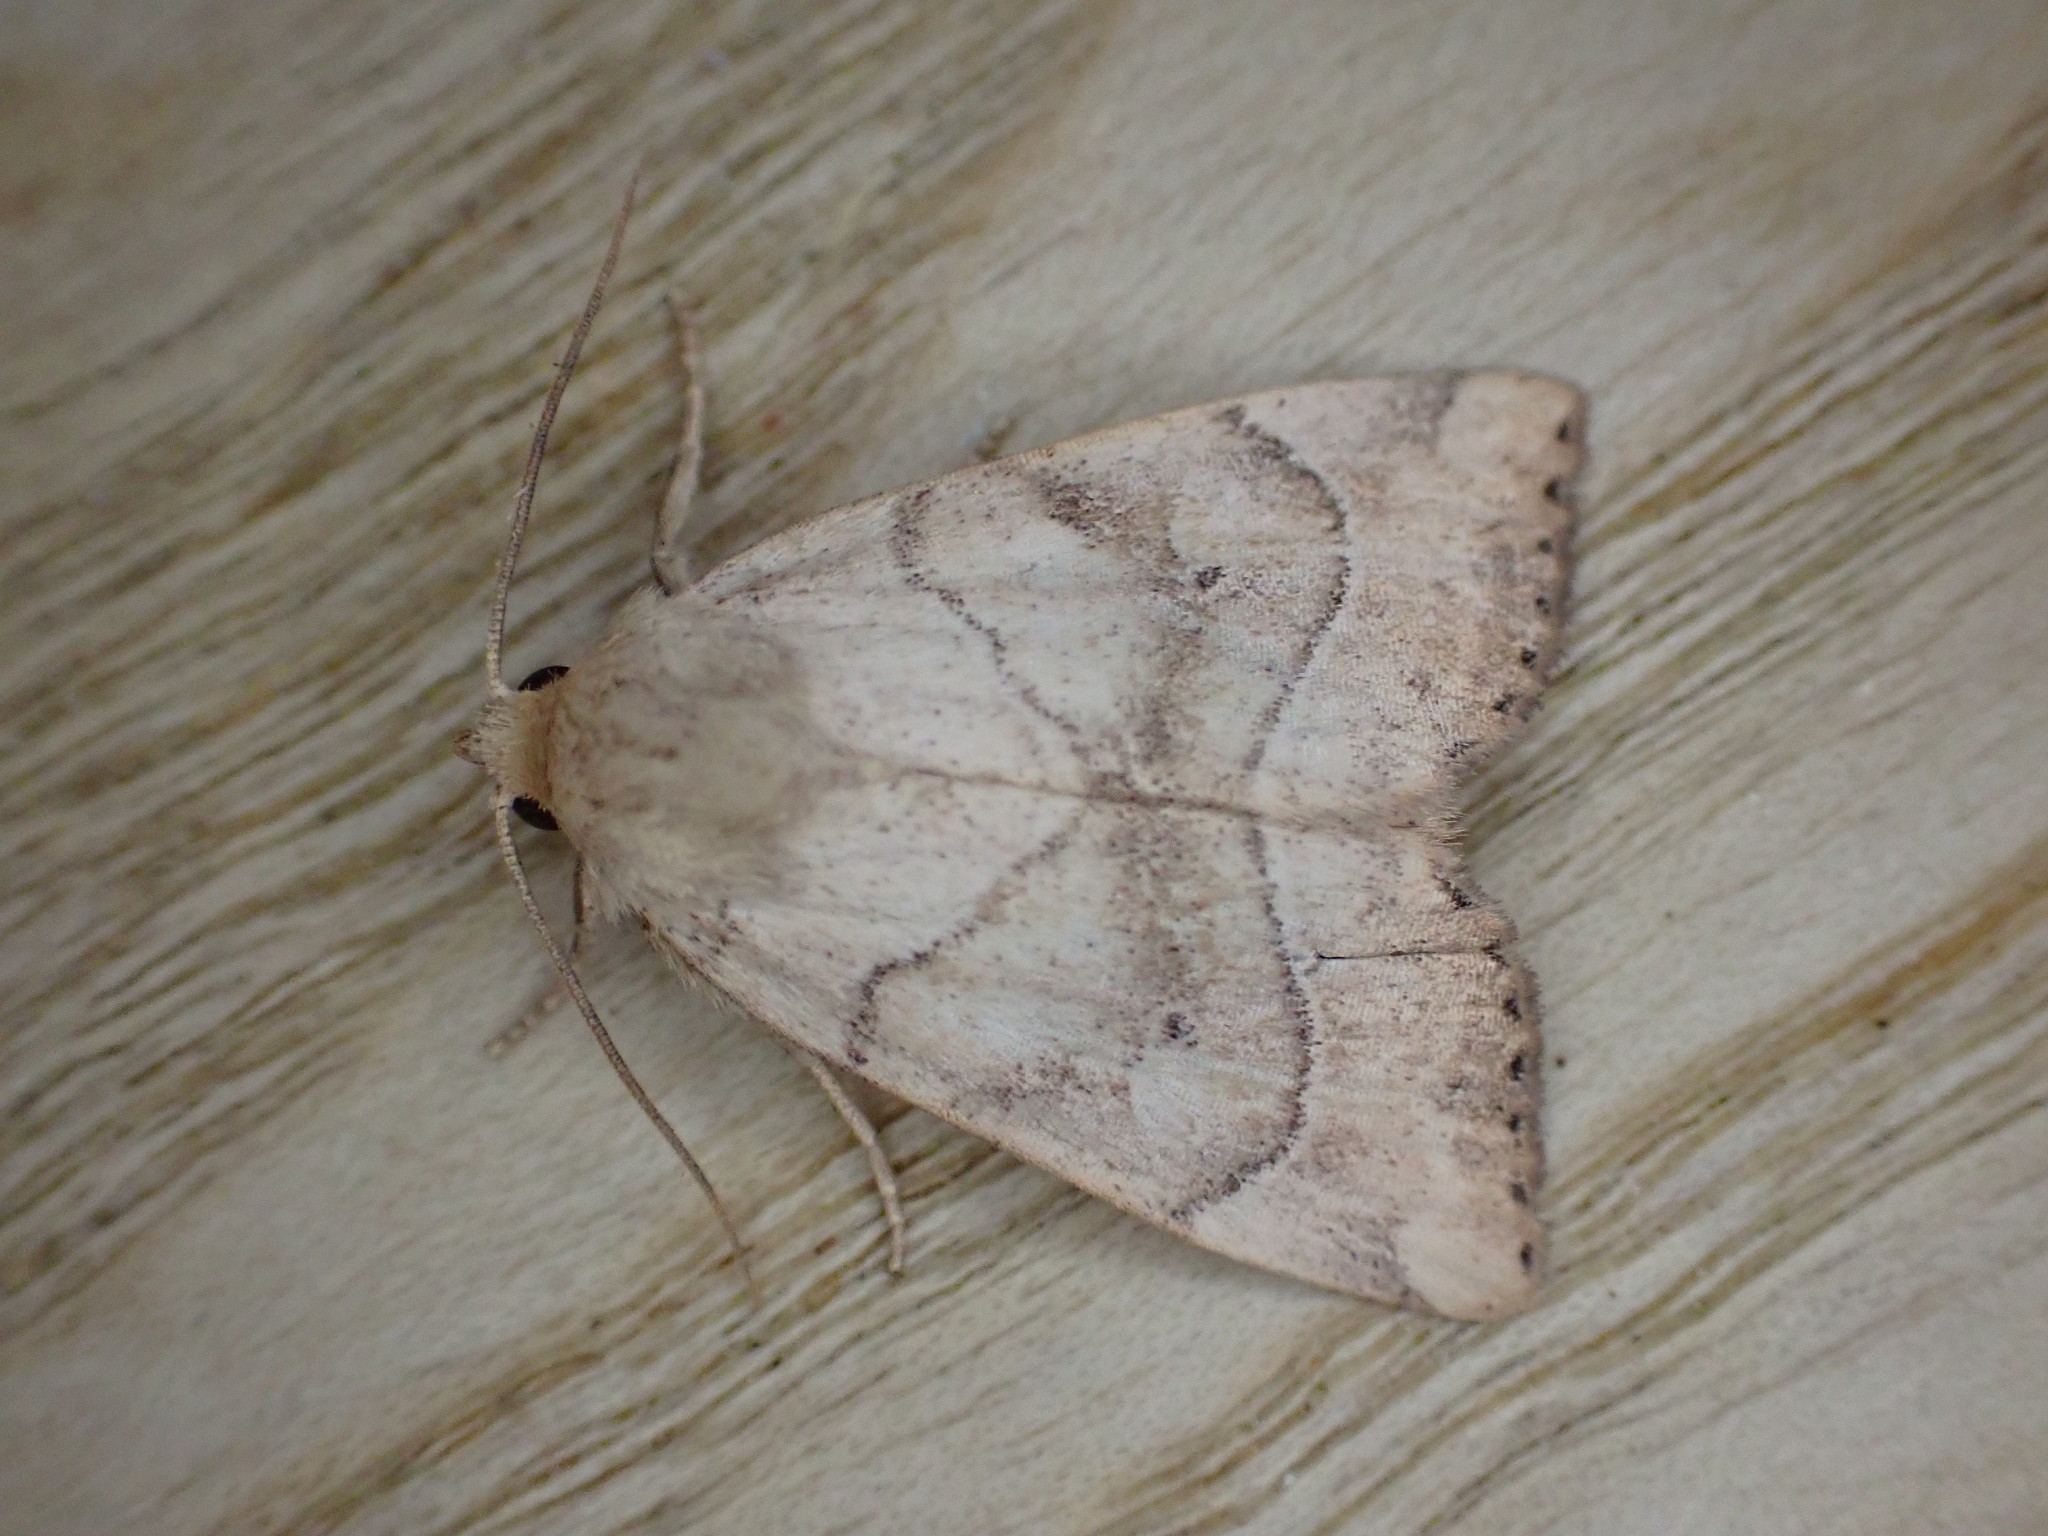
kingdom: Animalia
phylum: Arthropoda
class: Insecta
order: Lepidoptera
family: Noctuidae
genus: Cosmia
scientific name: Cosmia trapezina
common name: Dun-bar
